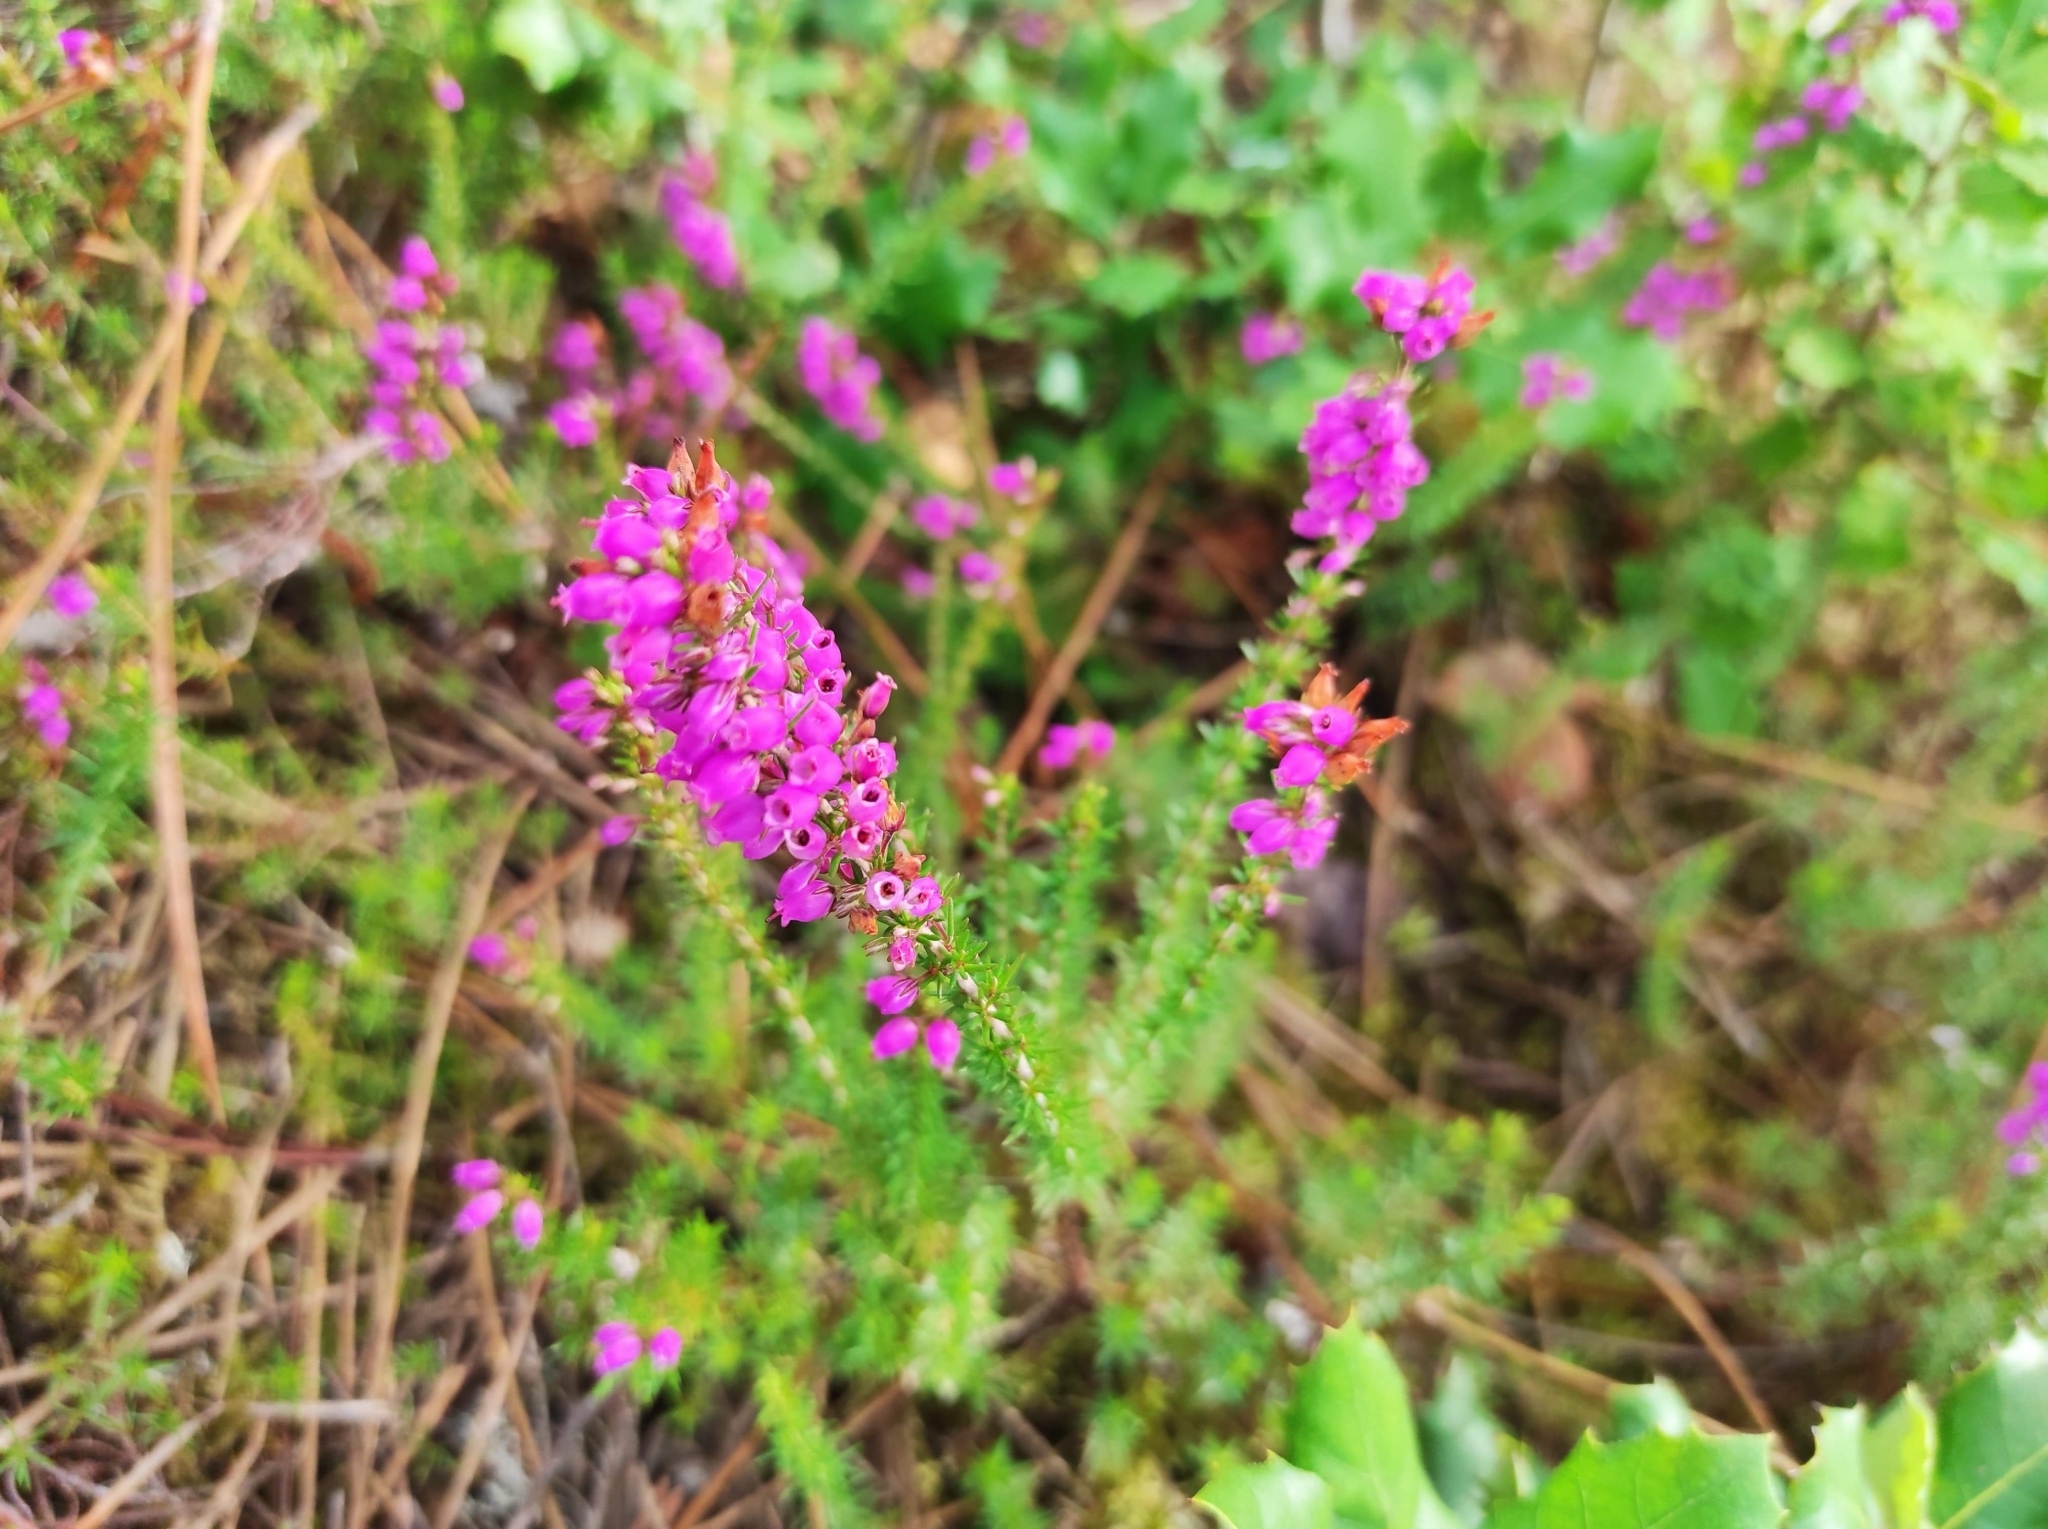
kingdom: Plantae
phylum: Tracheophyta
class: Magnoliopsida
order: Ericales
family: Ericaceae
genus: Erica
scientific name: Erica cinerea
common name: Bell heather
